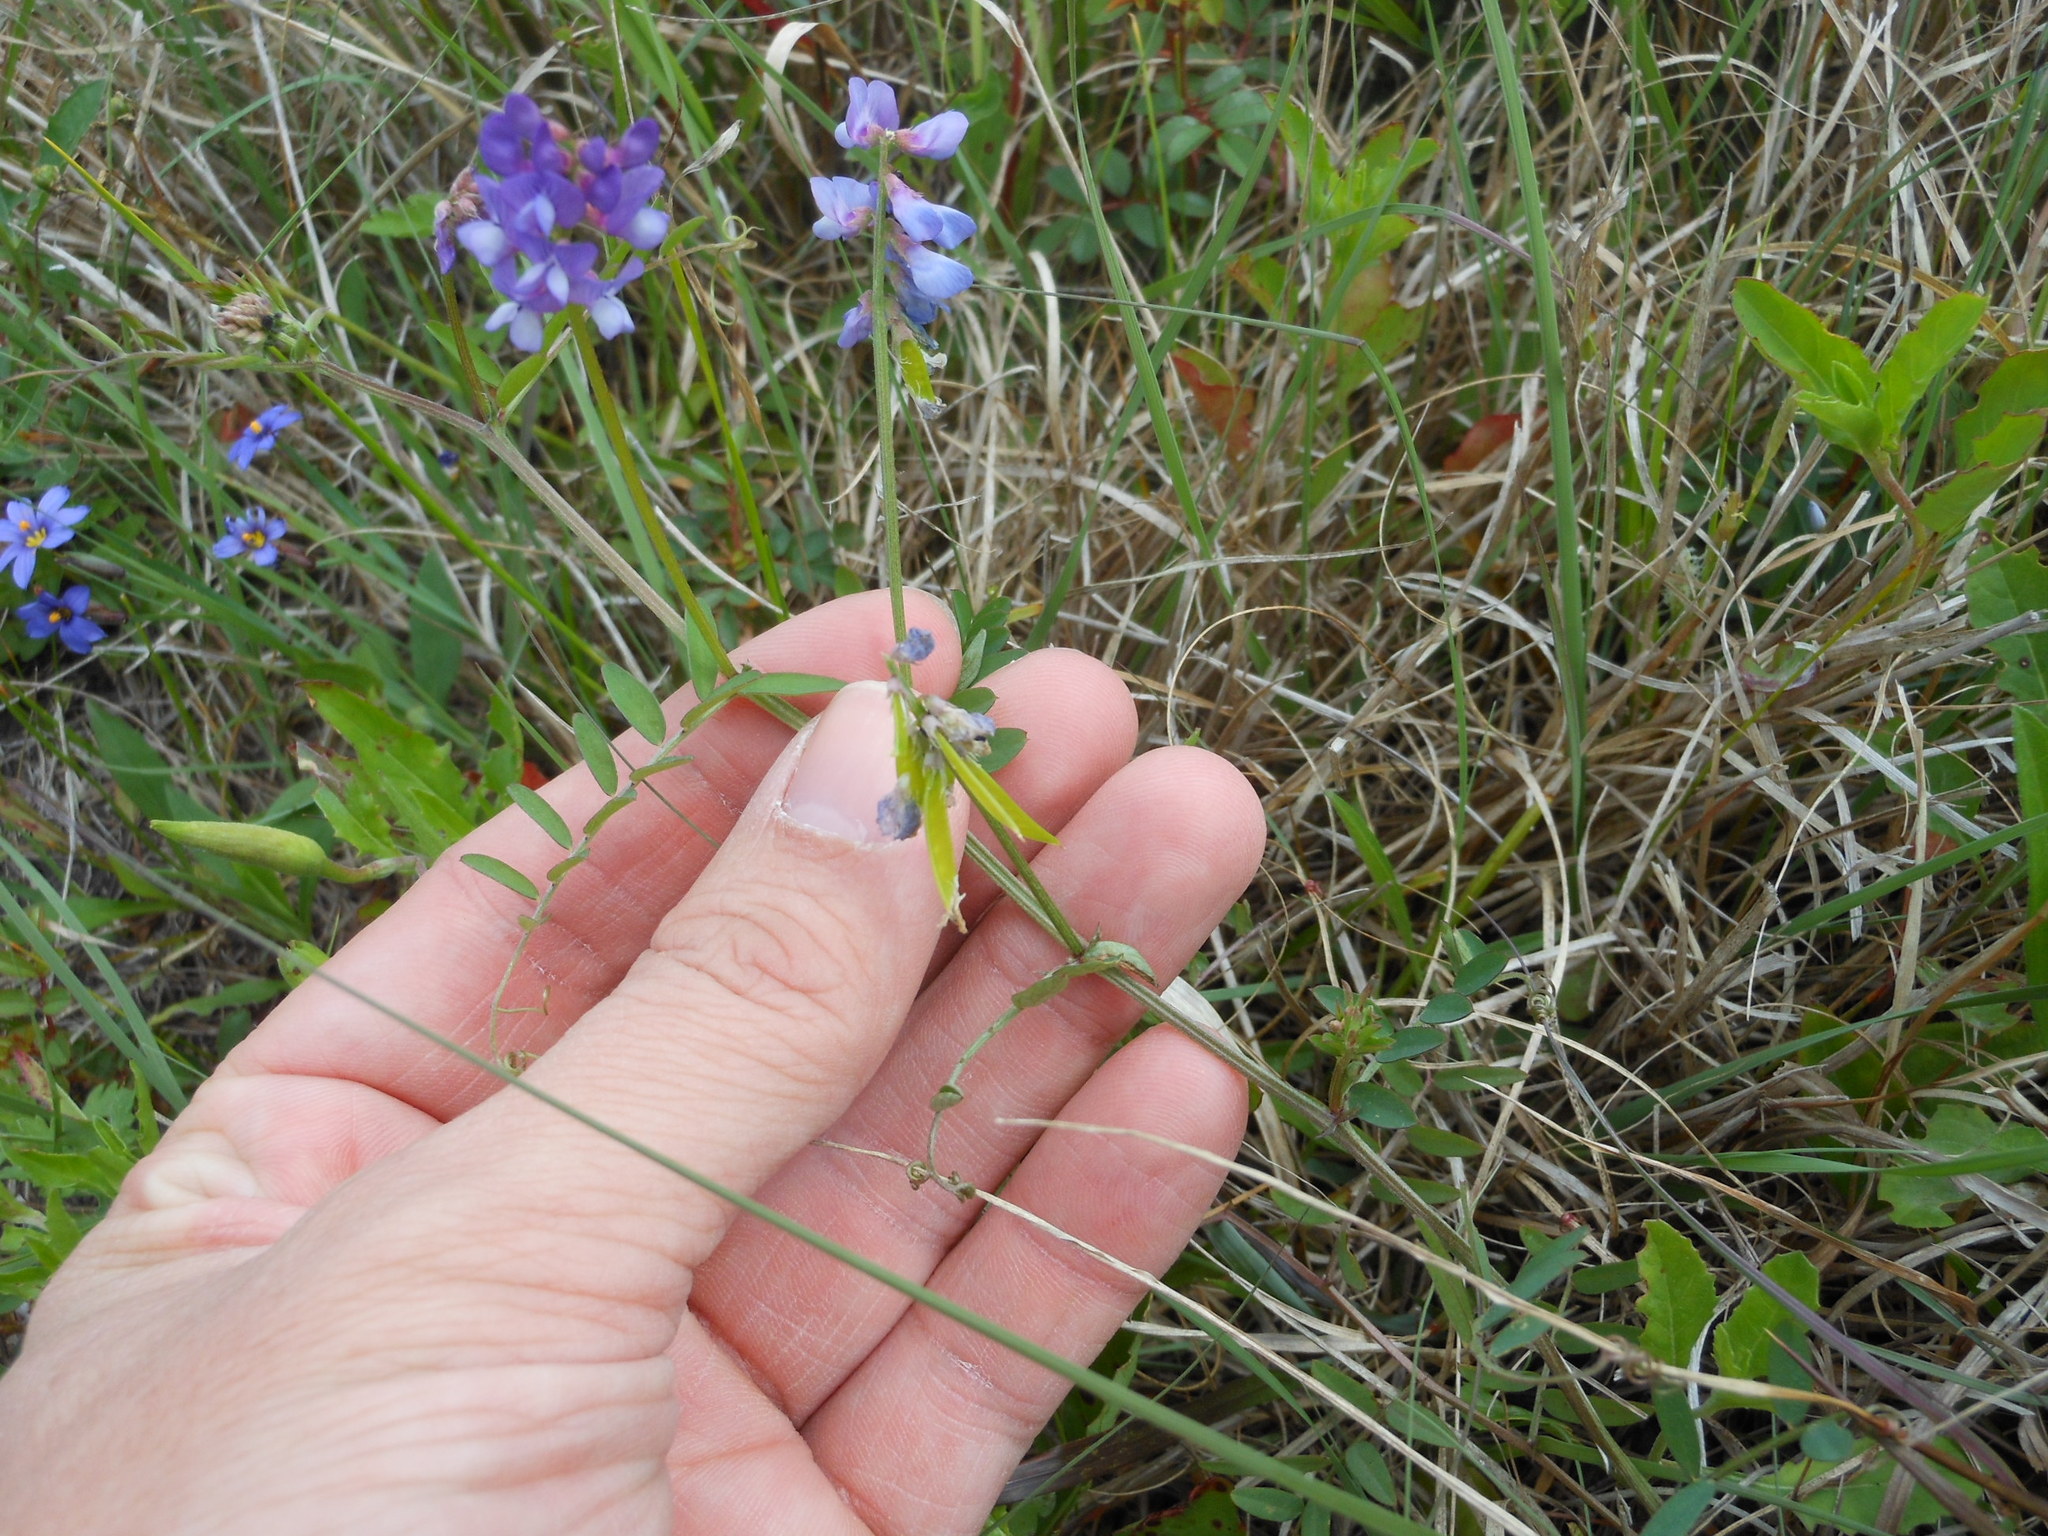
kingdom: Plantae
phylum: Tracheophyta
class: Magnoliopsida
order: Fabales
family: Fabaceae
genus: Vicia
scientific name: Vicia ludoviciana
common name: Louisiana vetch
